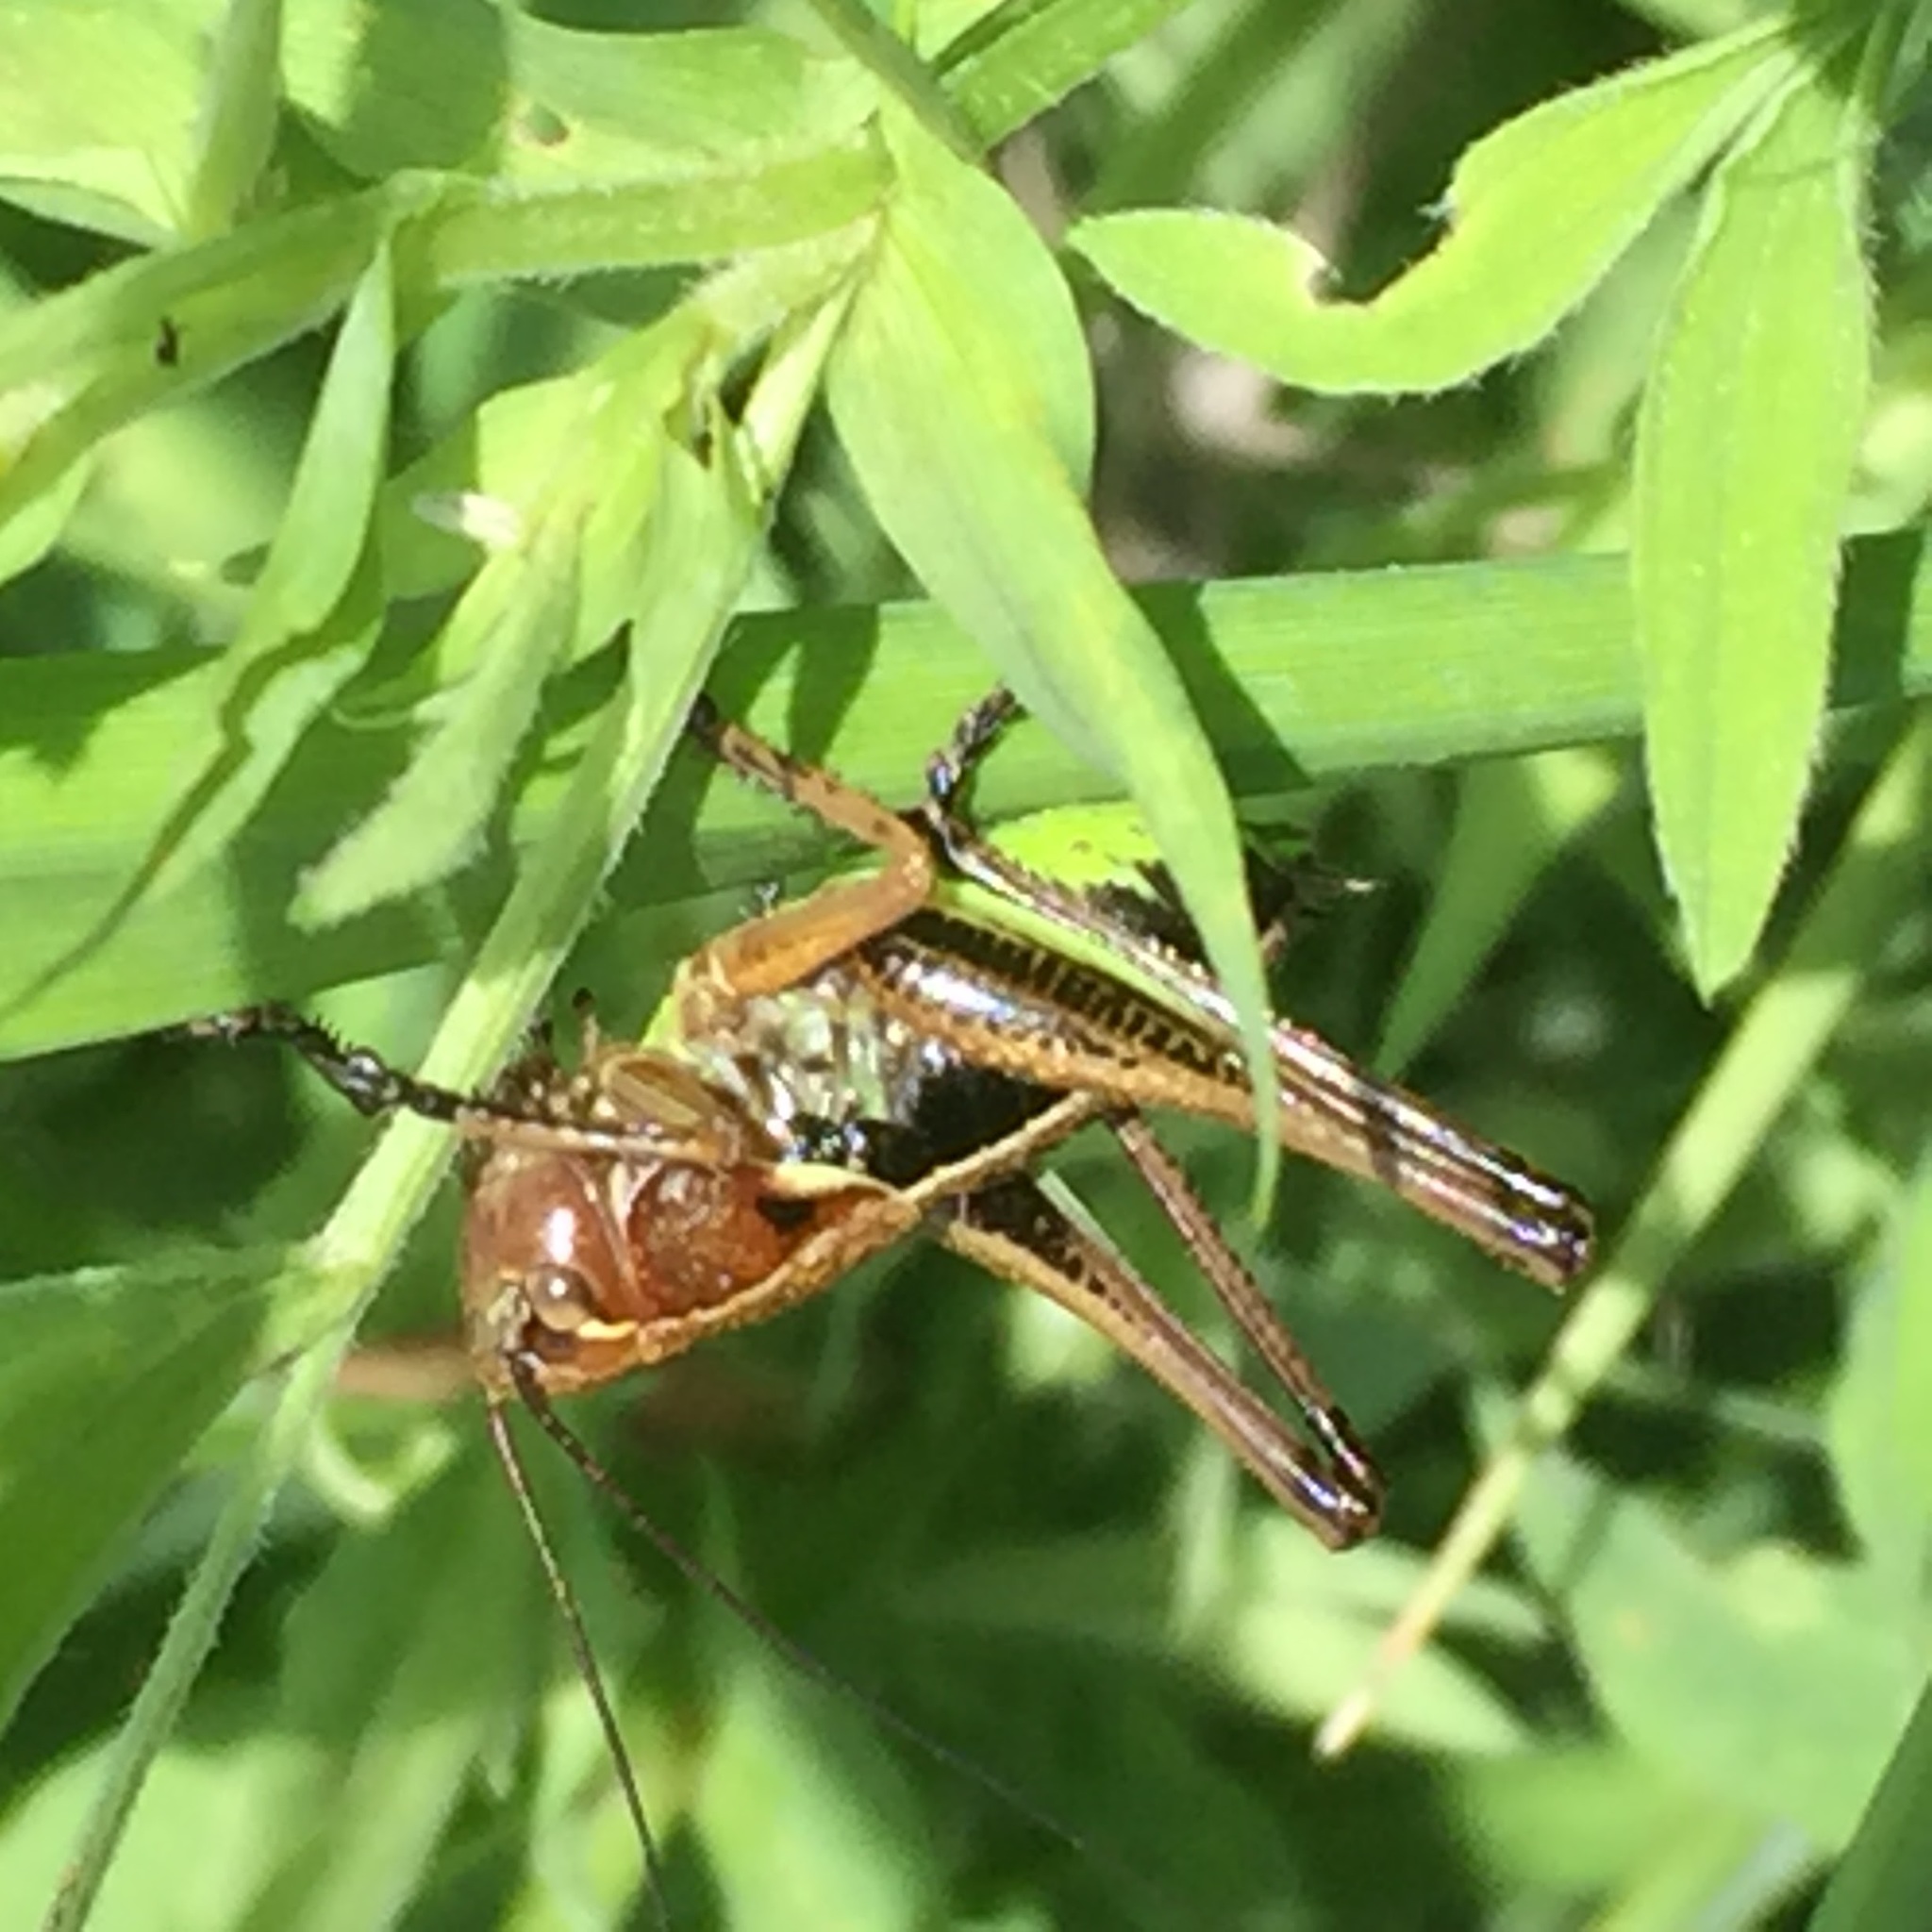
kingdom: Animalia
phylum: Arthropoda
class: Insecta
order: Orthoptera
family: Tettigoniidae
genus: Roeseliana
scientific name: Roeseliana roeselii
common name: Roesel's bush cricket
